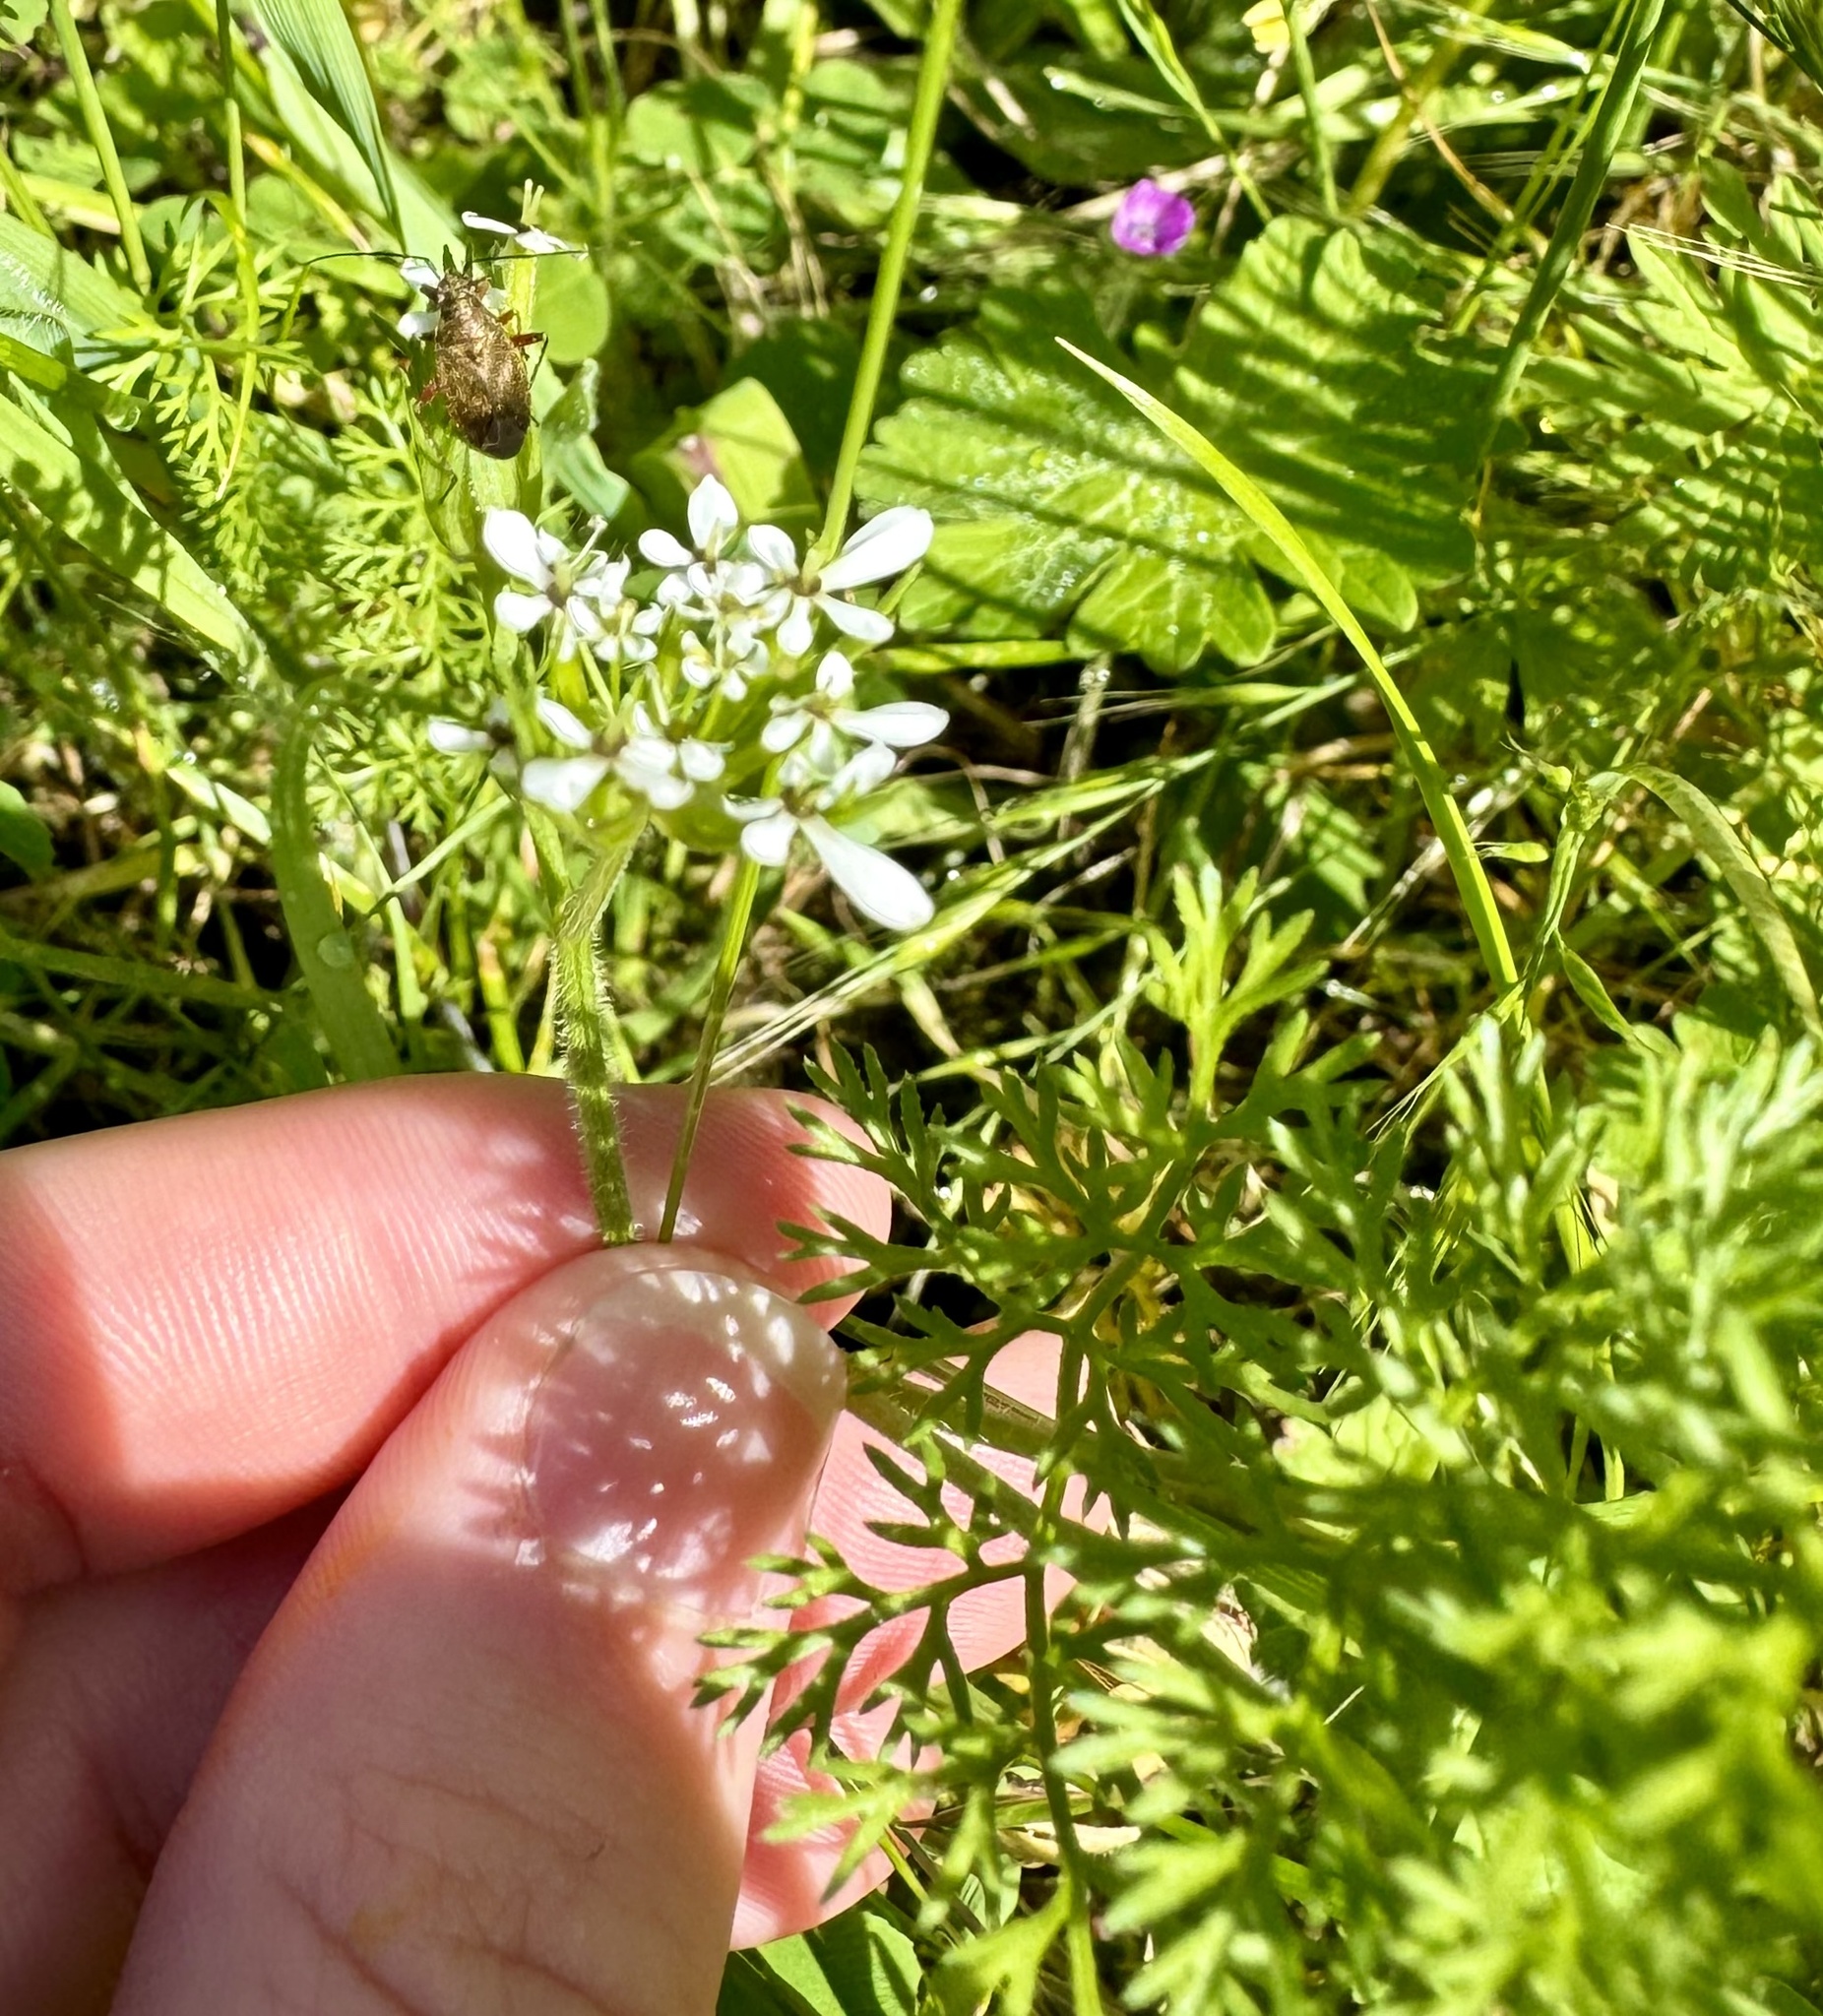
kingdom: Plantae
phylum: Tracheophyta
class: Magnoliopsida
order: Apiales
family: Apiaceae
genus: Scandix
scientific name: Scandix pecten-veneris
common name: Shepherd's-needle
